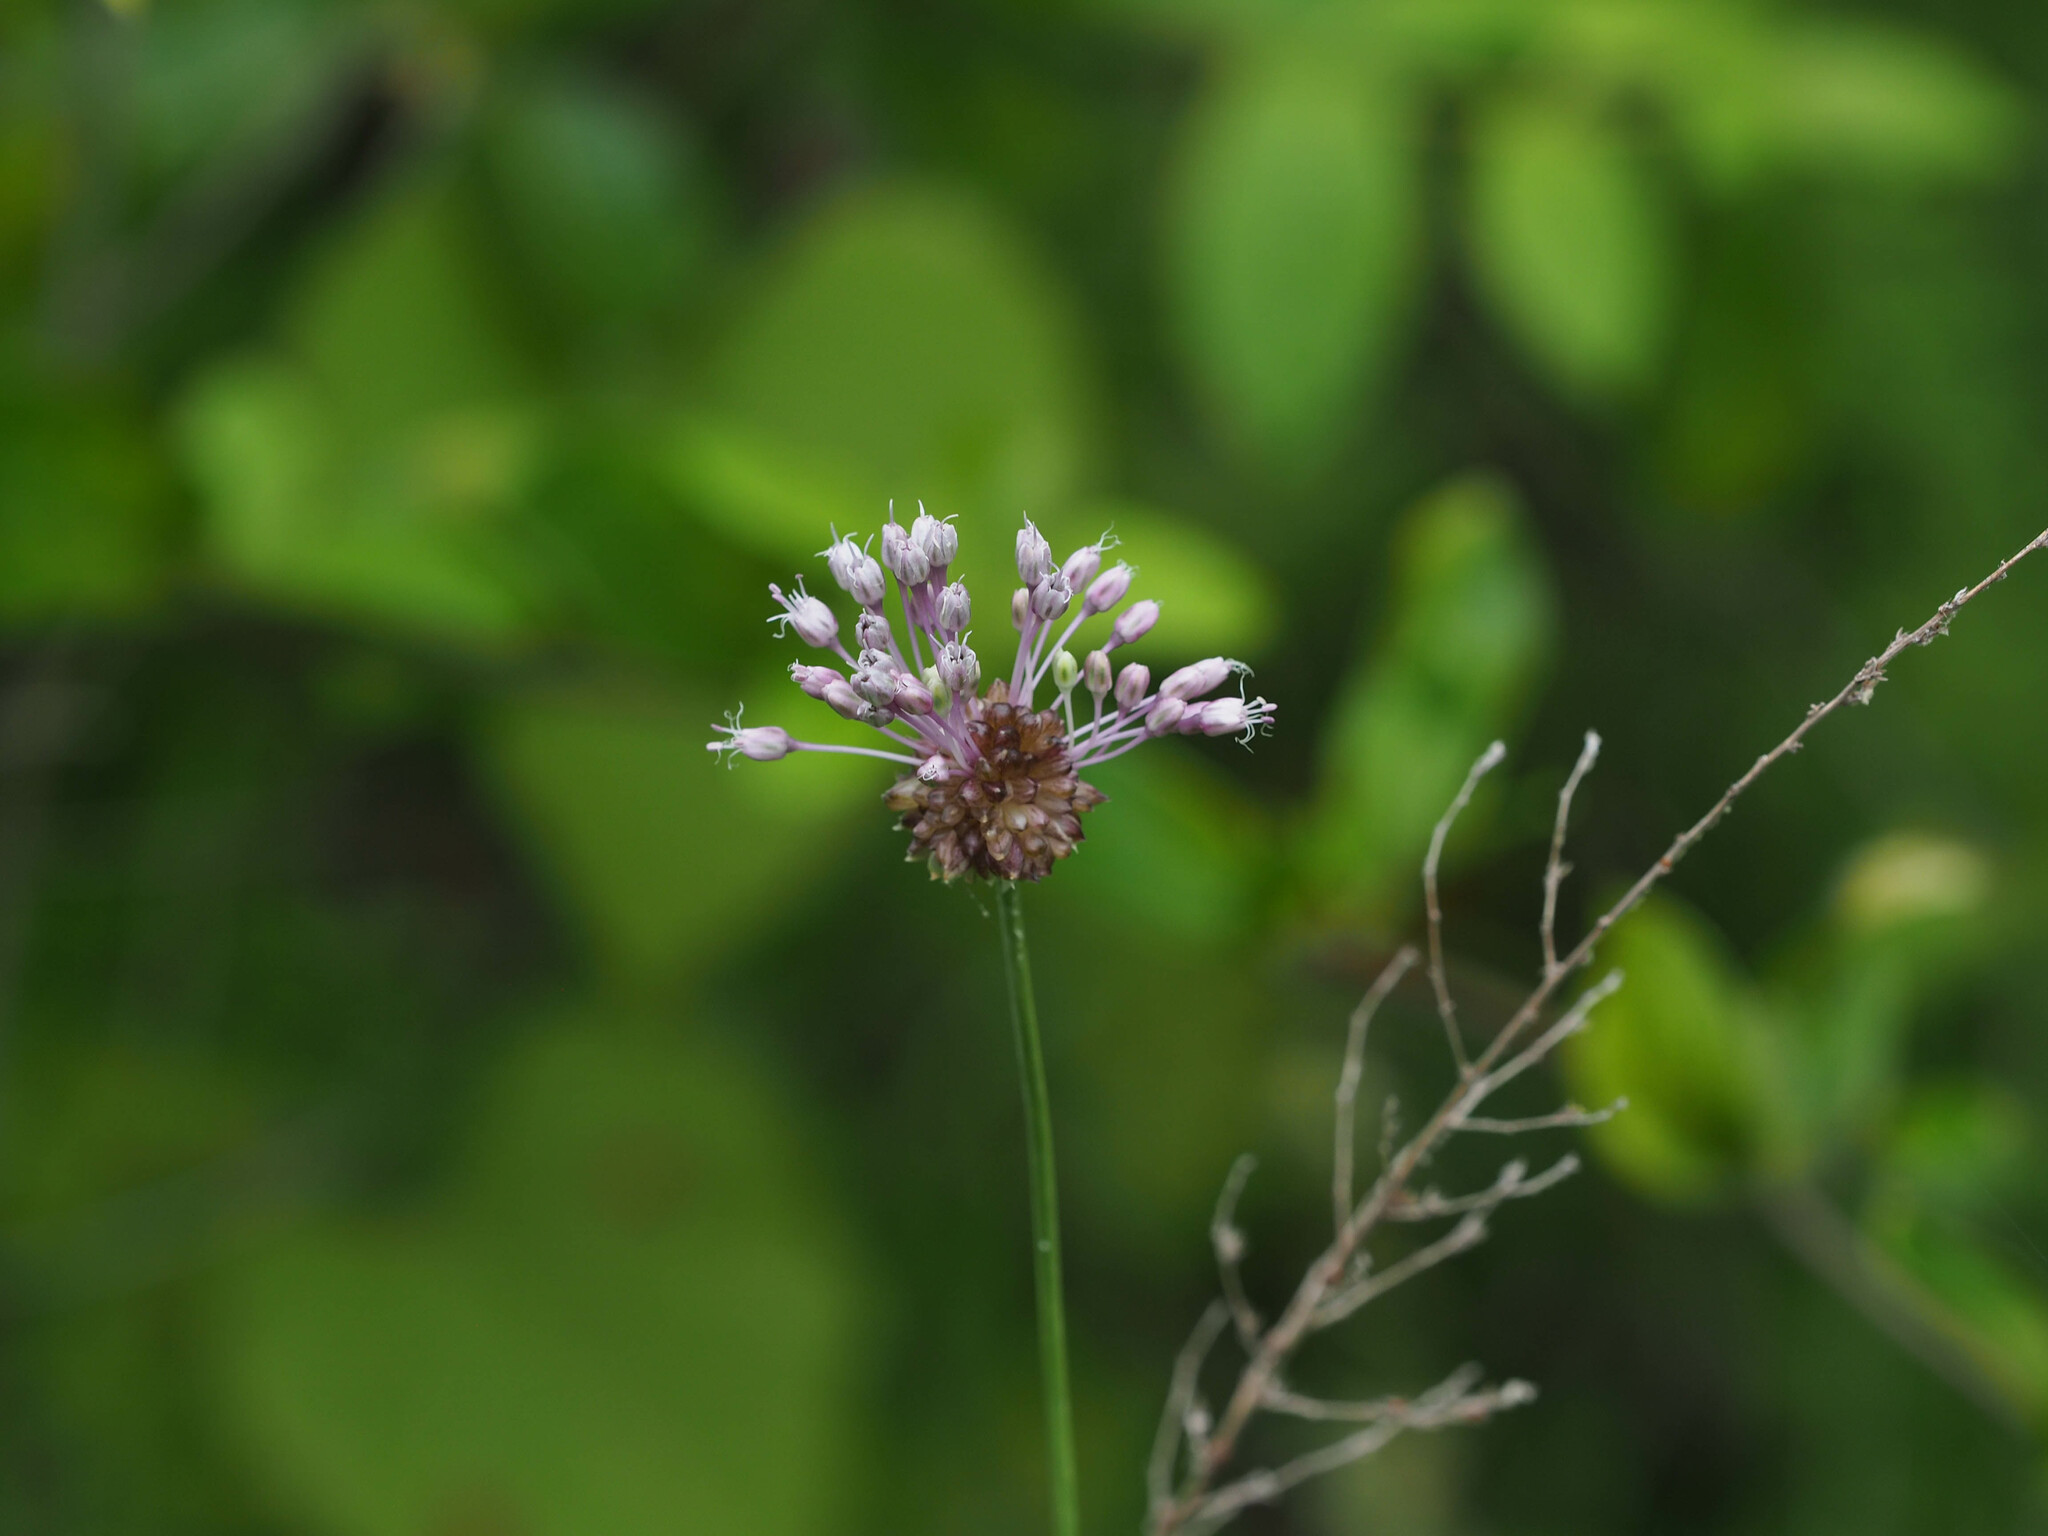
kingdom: Plantae
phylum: Tracheophyta
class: Liliopsida
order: Asparagales
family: Amaryllidaceae
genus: Allium
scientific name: Allium vineale
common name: Crow garlic
